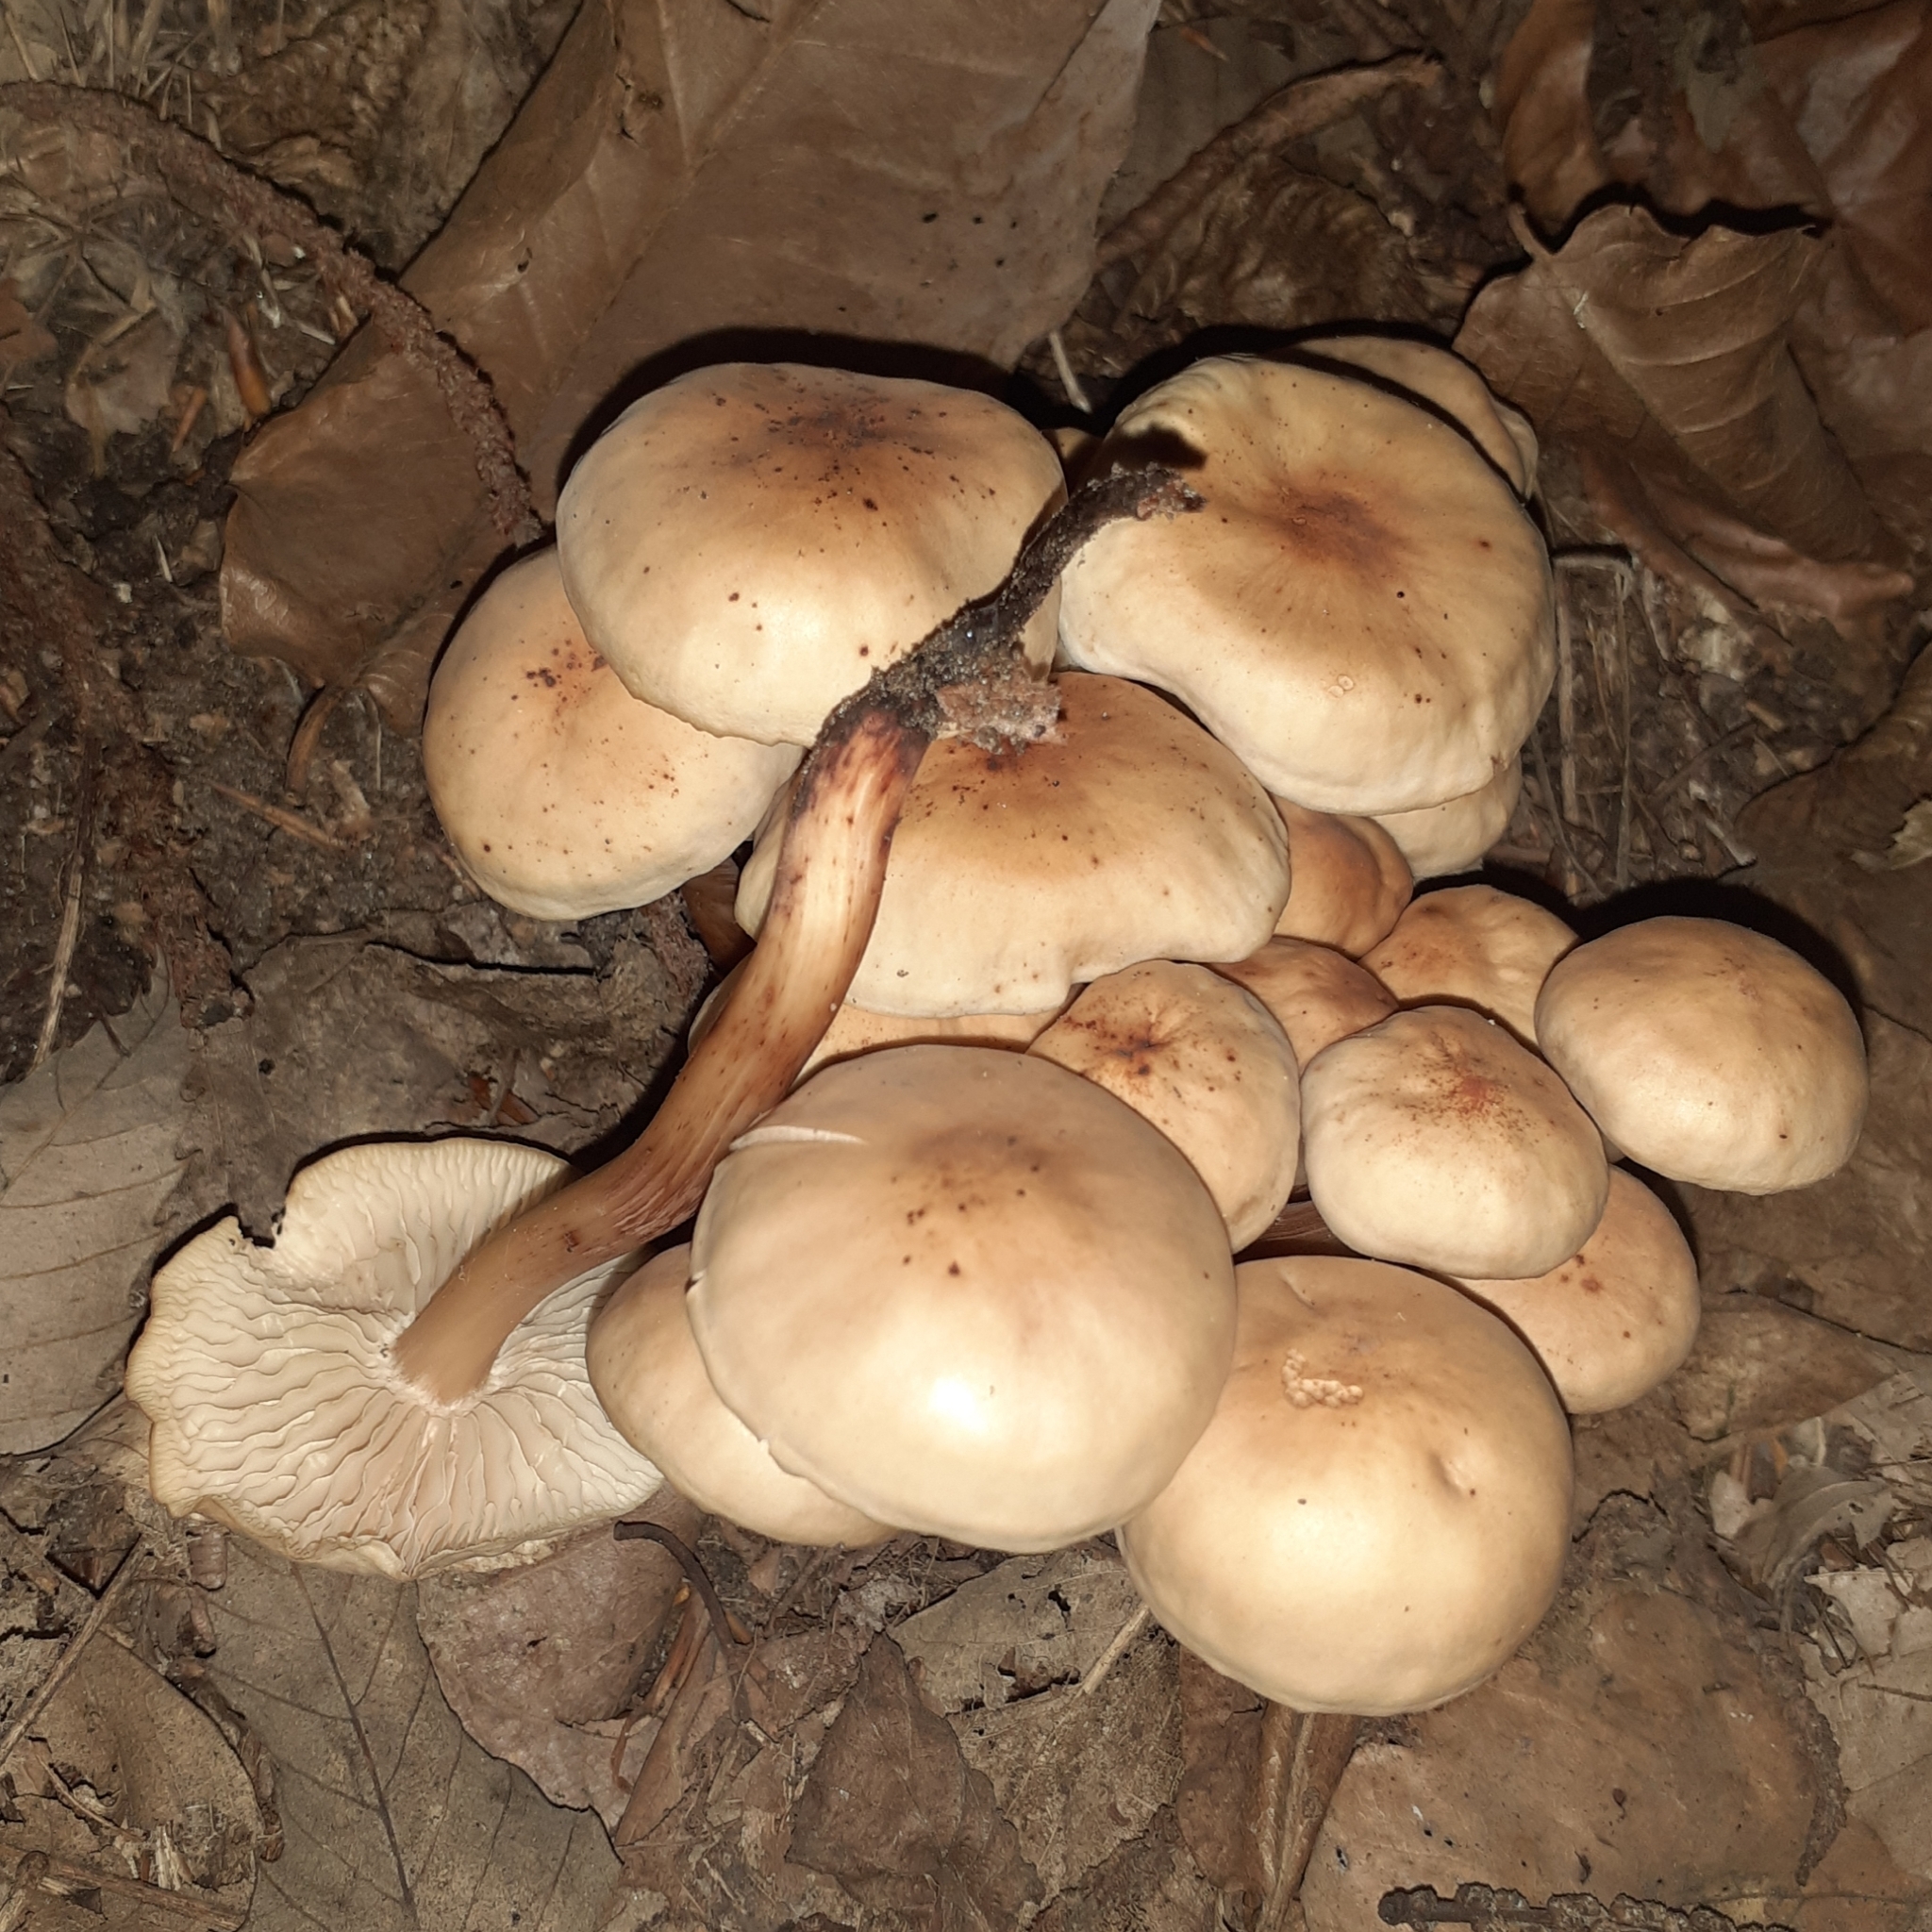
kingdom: Fungi
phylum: Basidiomycota
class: Agaricomycetes
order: Agaricales
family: Omphalotaceae
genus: Gymnopus
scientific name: Gymnopus fusipes
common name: Spindle shank
